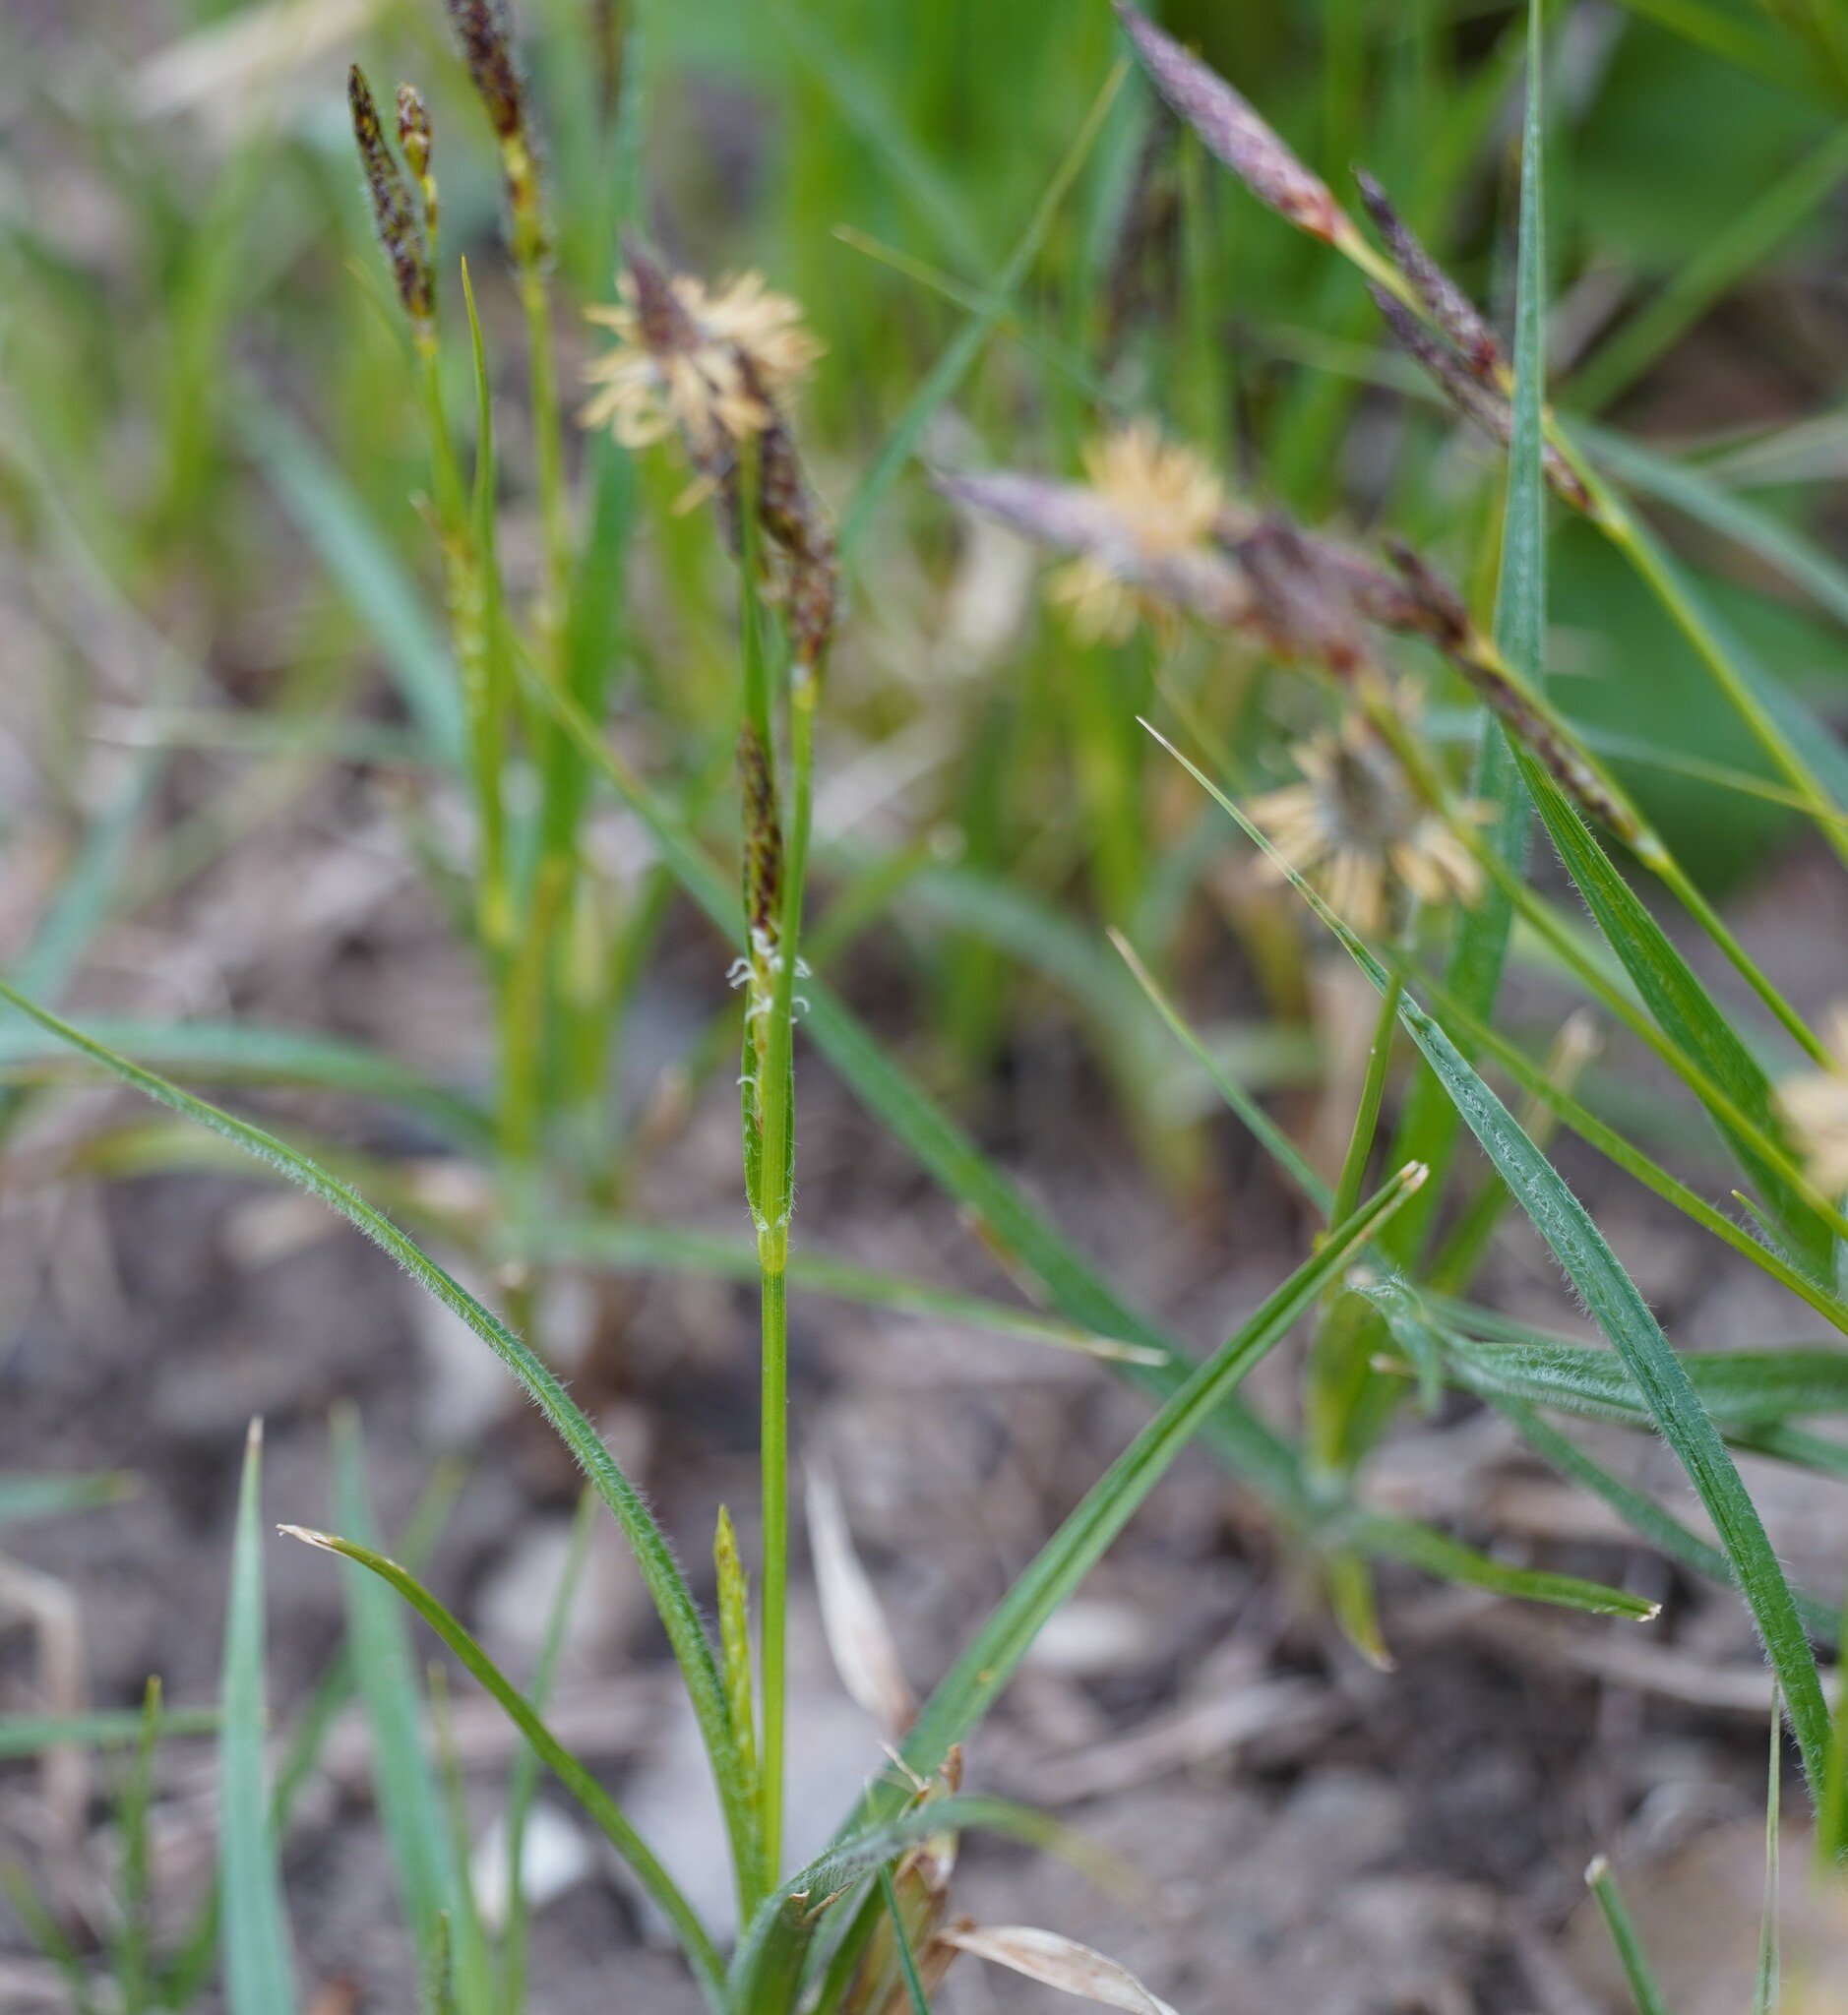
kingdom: Plantae
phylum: Tracheophyta
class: Liliopsida
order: Poales
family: Cyperaceae
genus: Carex
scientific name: Carex hirta
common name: Hairy sedge
